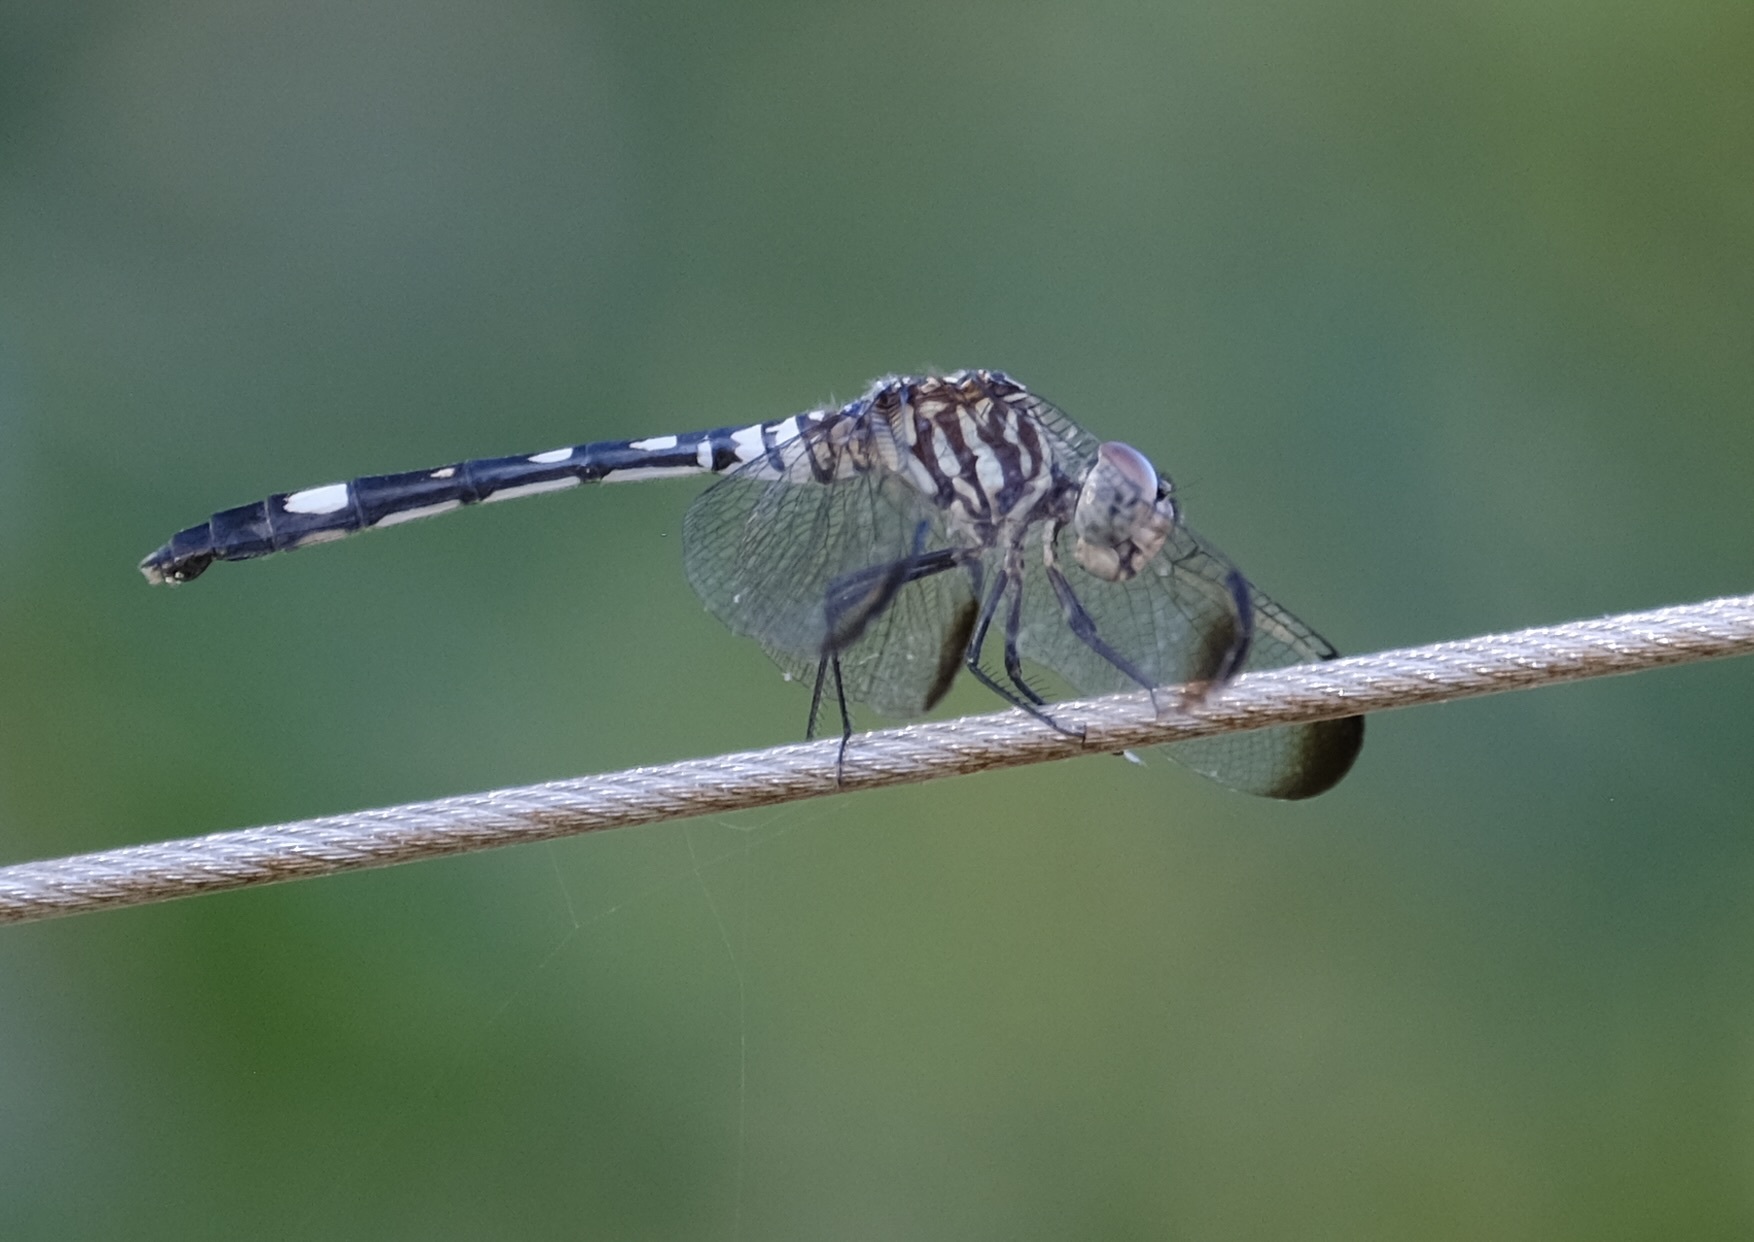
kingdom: Animalia
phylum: Arthropoda
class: Insecta
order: Odonata
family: Libellulidae
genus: Dythemis
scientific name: Dythemis velox
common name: Swift setwing
